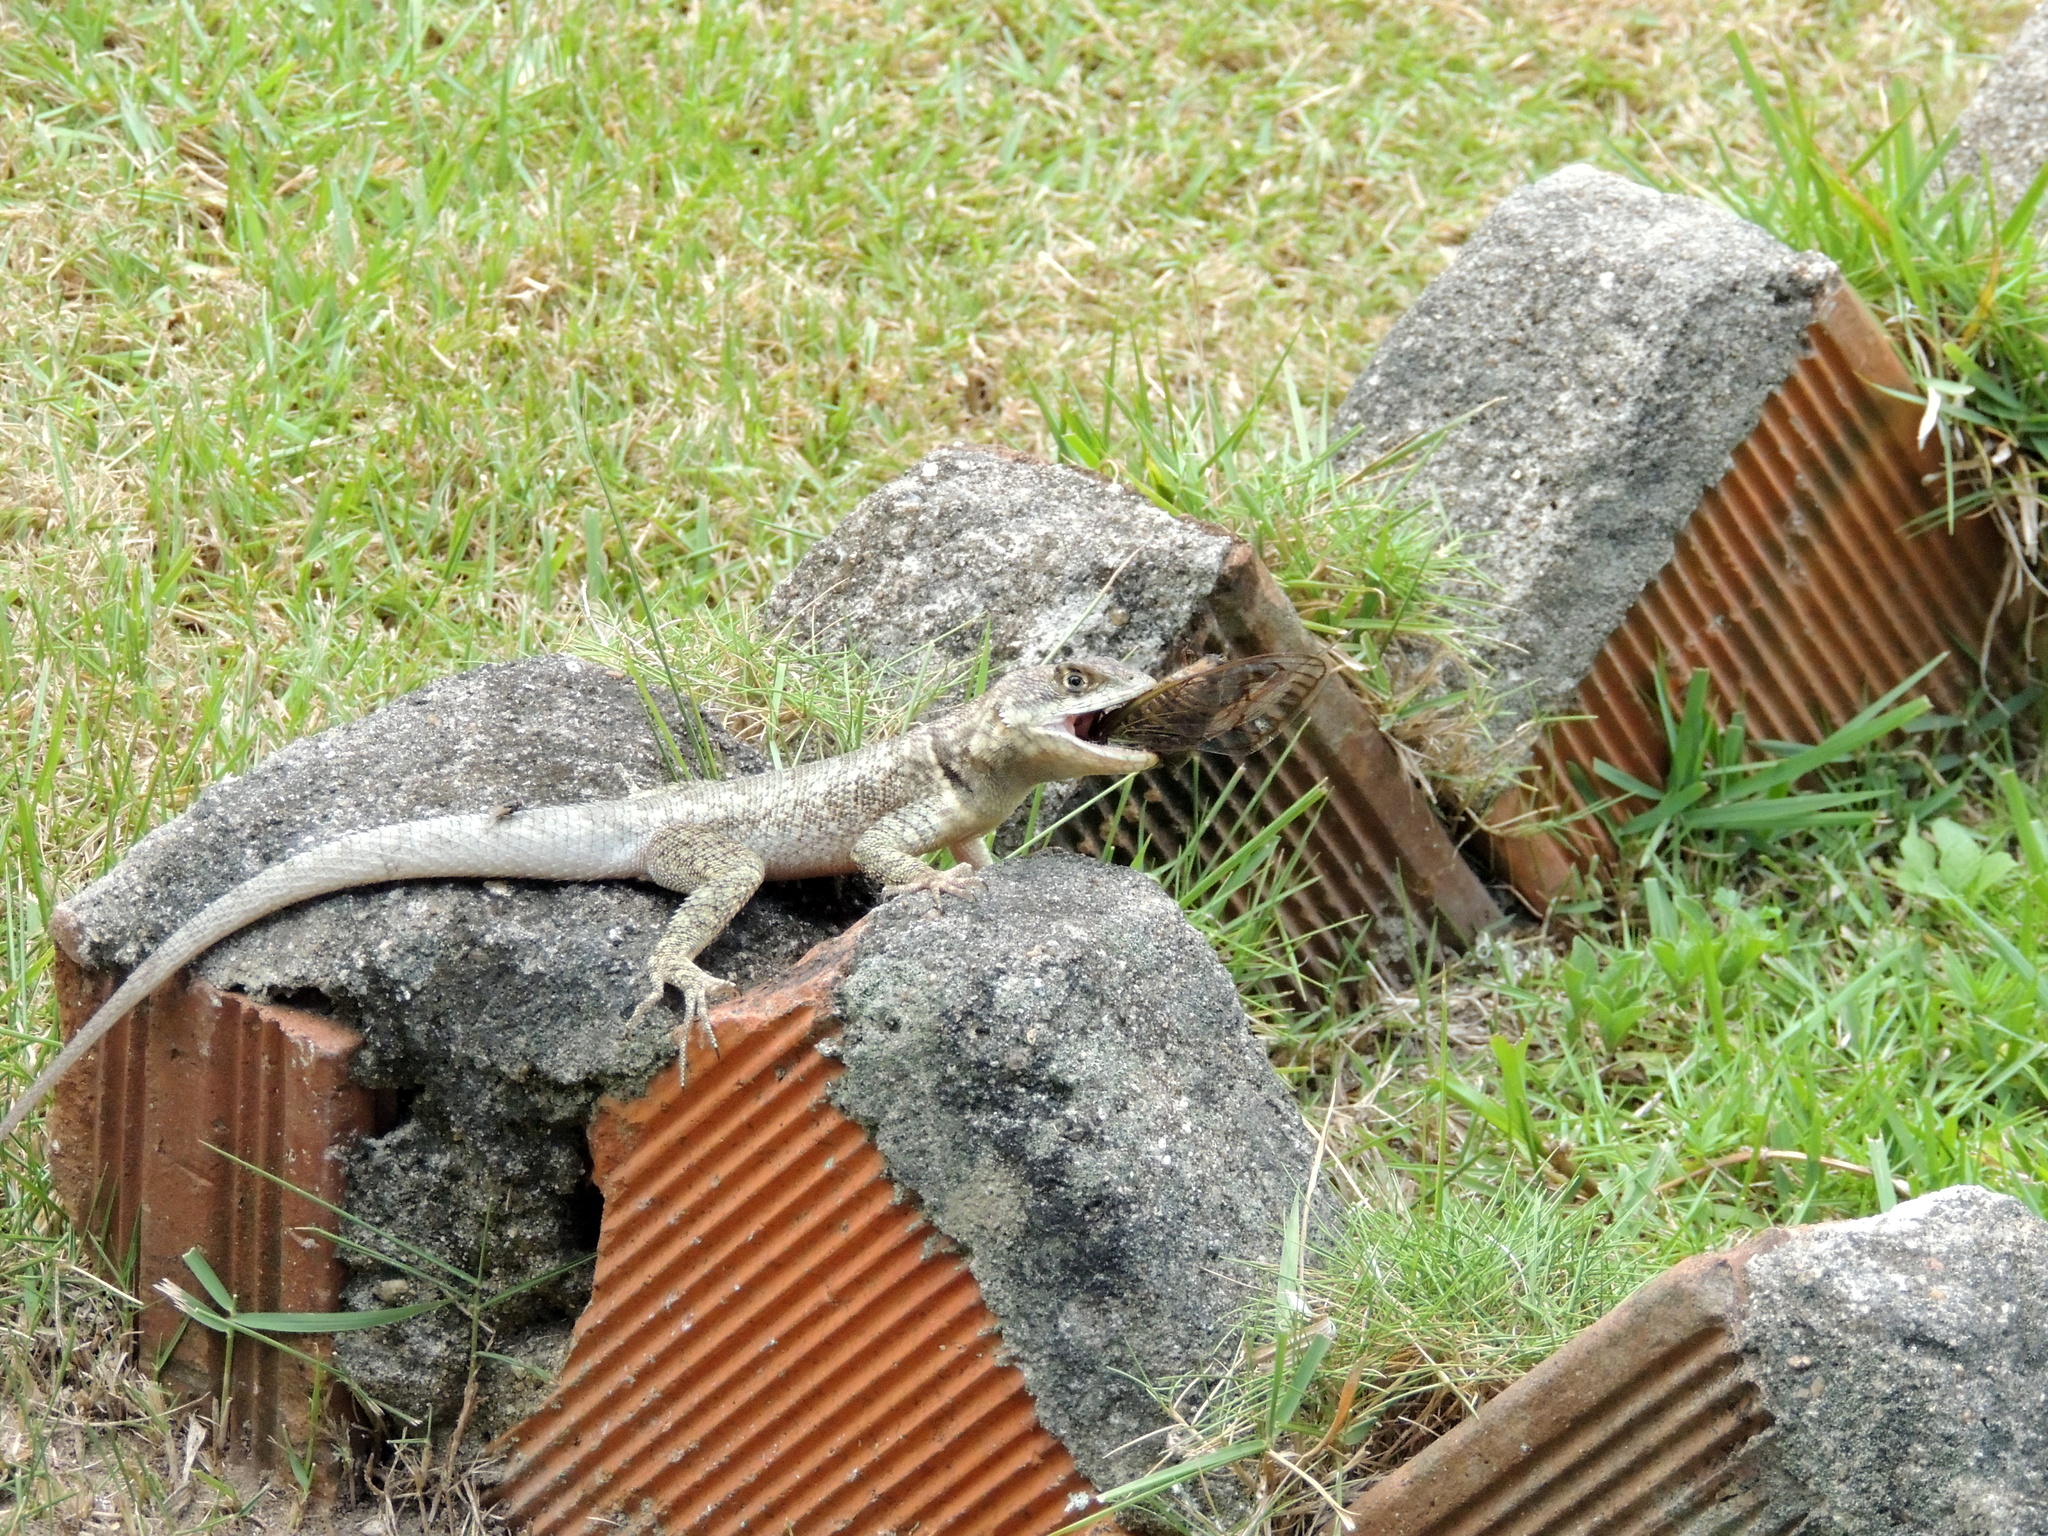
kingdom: Animalia
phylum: Chordata
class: Squamata
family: Tropiduridae
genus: Tropidurus
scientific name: Tropidurus hispidus
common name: Peters' lava lizard
